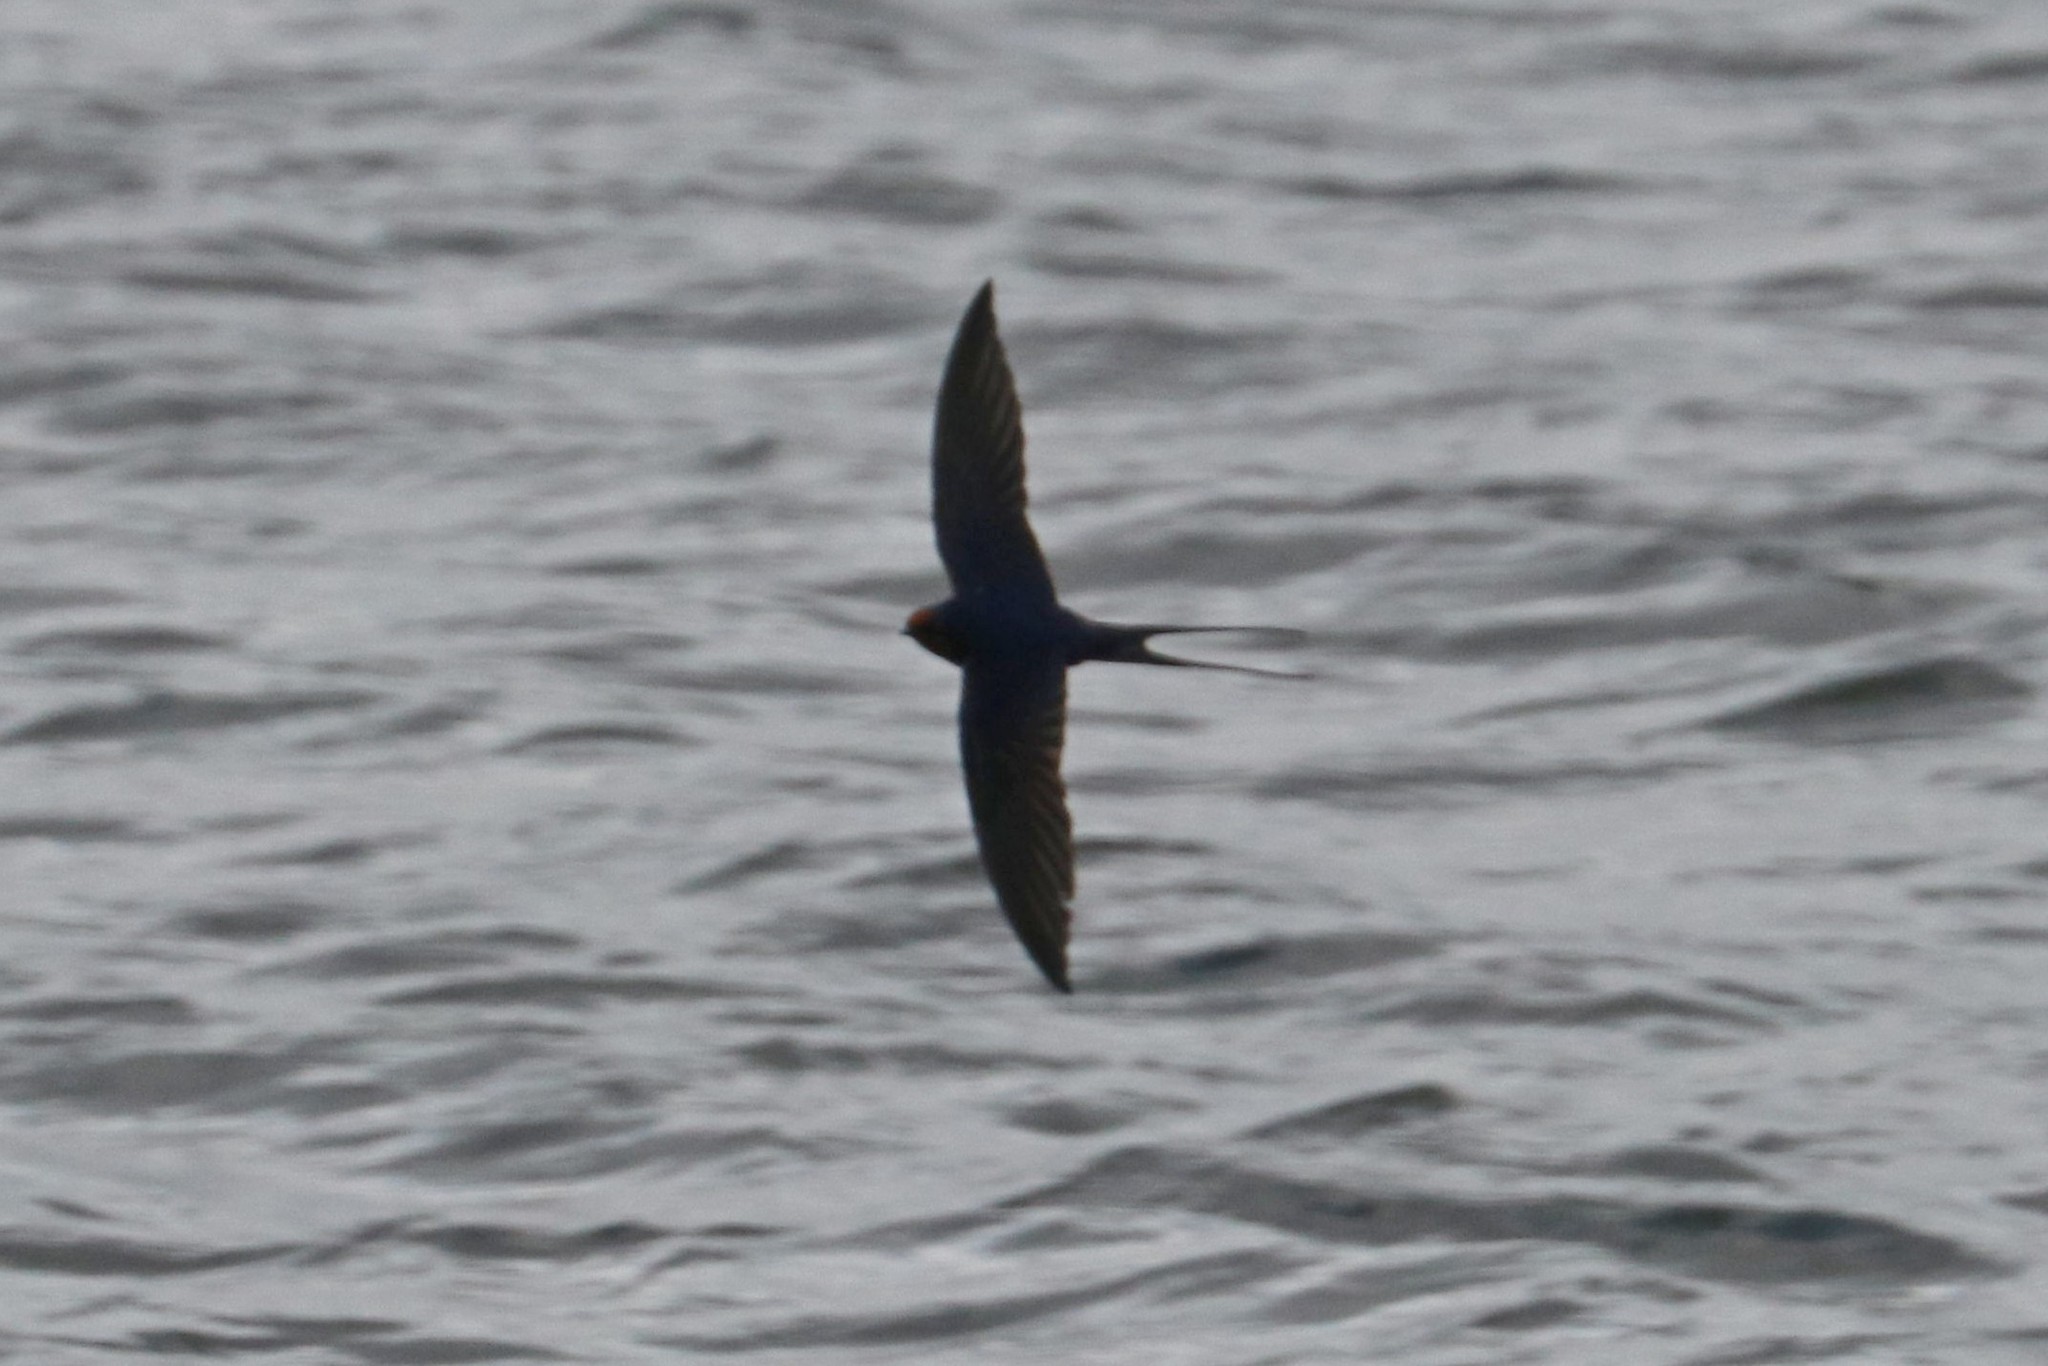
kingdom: Animalia
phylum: Chordata
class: Aves
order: Passeriformes
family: Hirundinidae
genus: Hirundo
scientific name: Hirundo rustica
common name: Barn swallow
